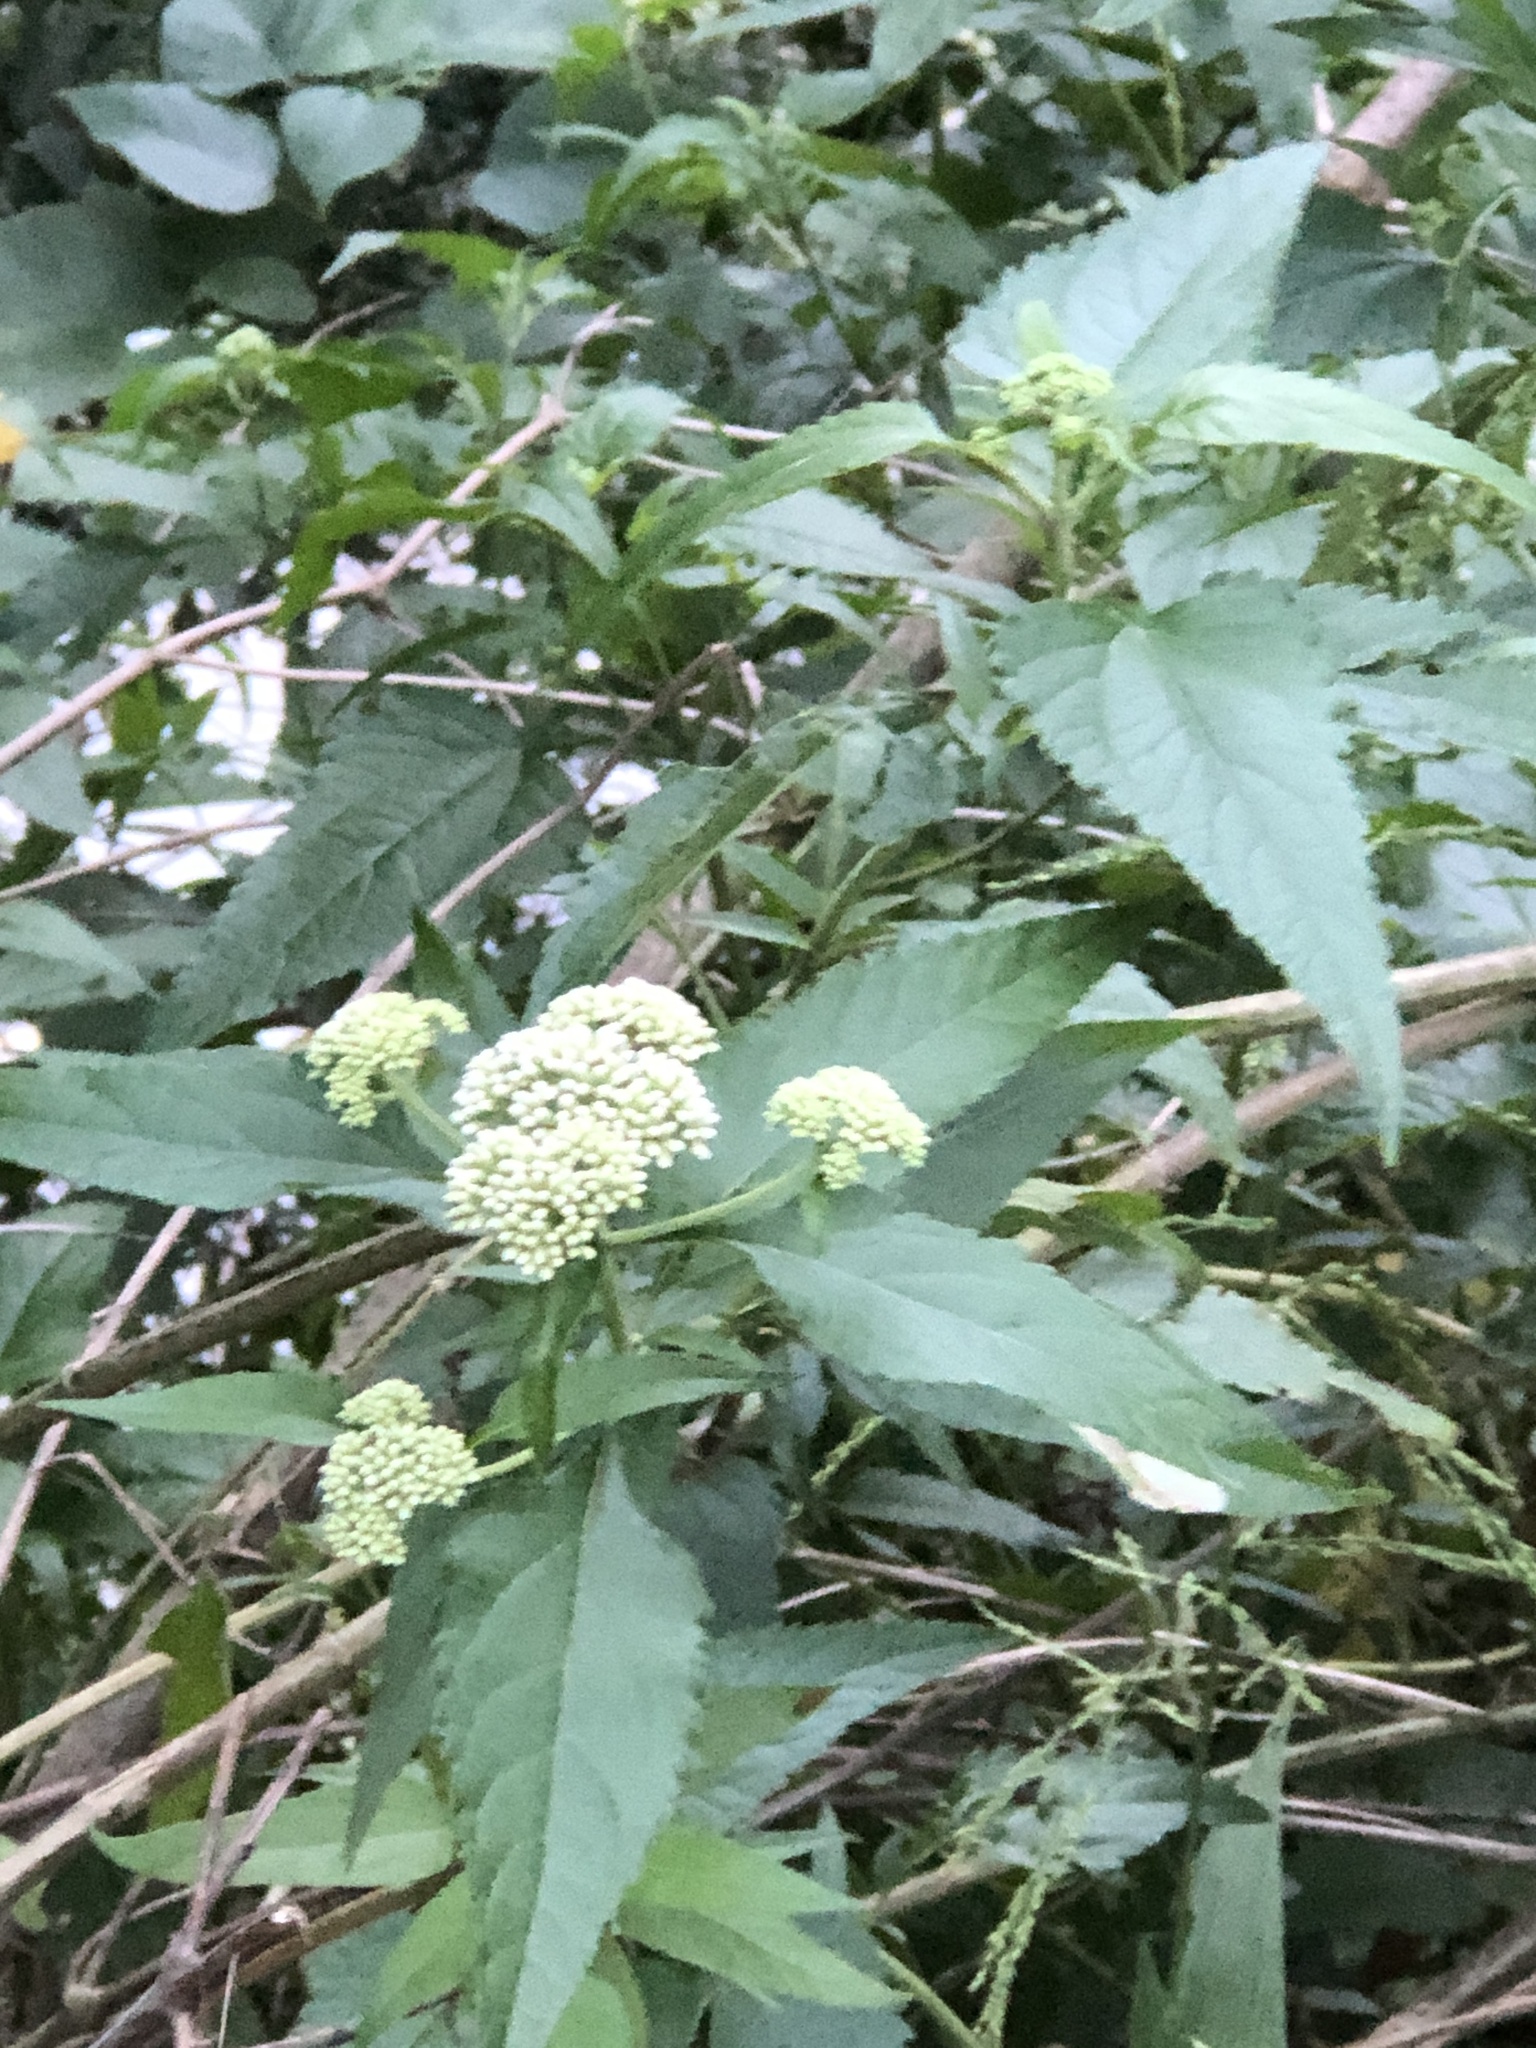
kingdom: Plantae
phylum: Tracheophyta
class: Magnoliopsida
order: Asterales
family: Asteraceae
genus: Austroeupatorium
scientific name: Austroeupatorium inulifolium
